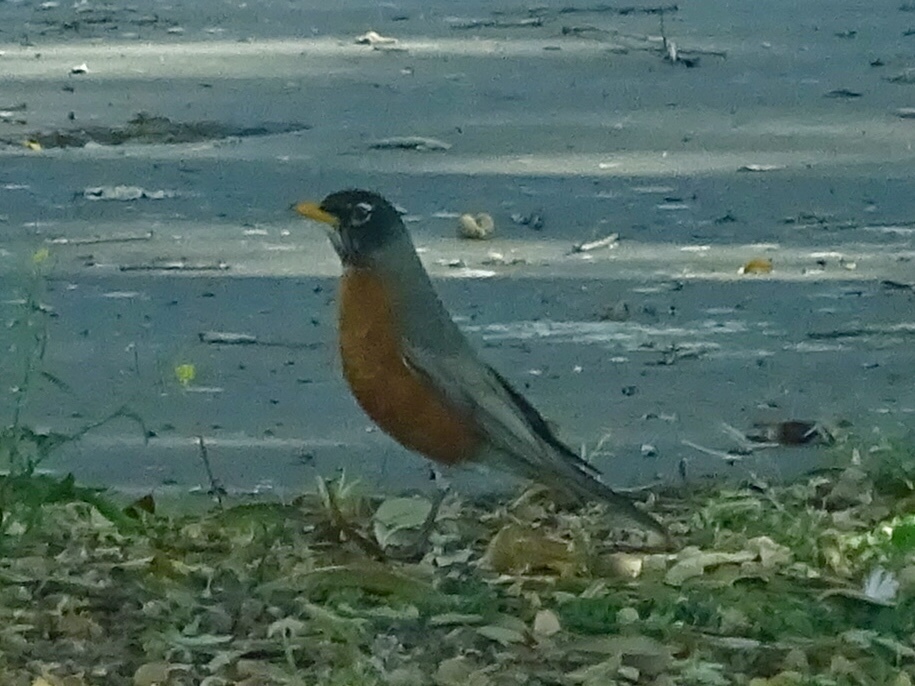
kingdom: Animalia
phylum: Chordata
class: Aves
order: Passeriformes
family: Turdidae
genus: Turdus
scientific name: Turdus migratorius
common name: American robin
